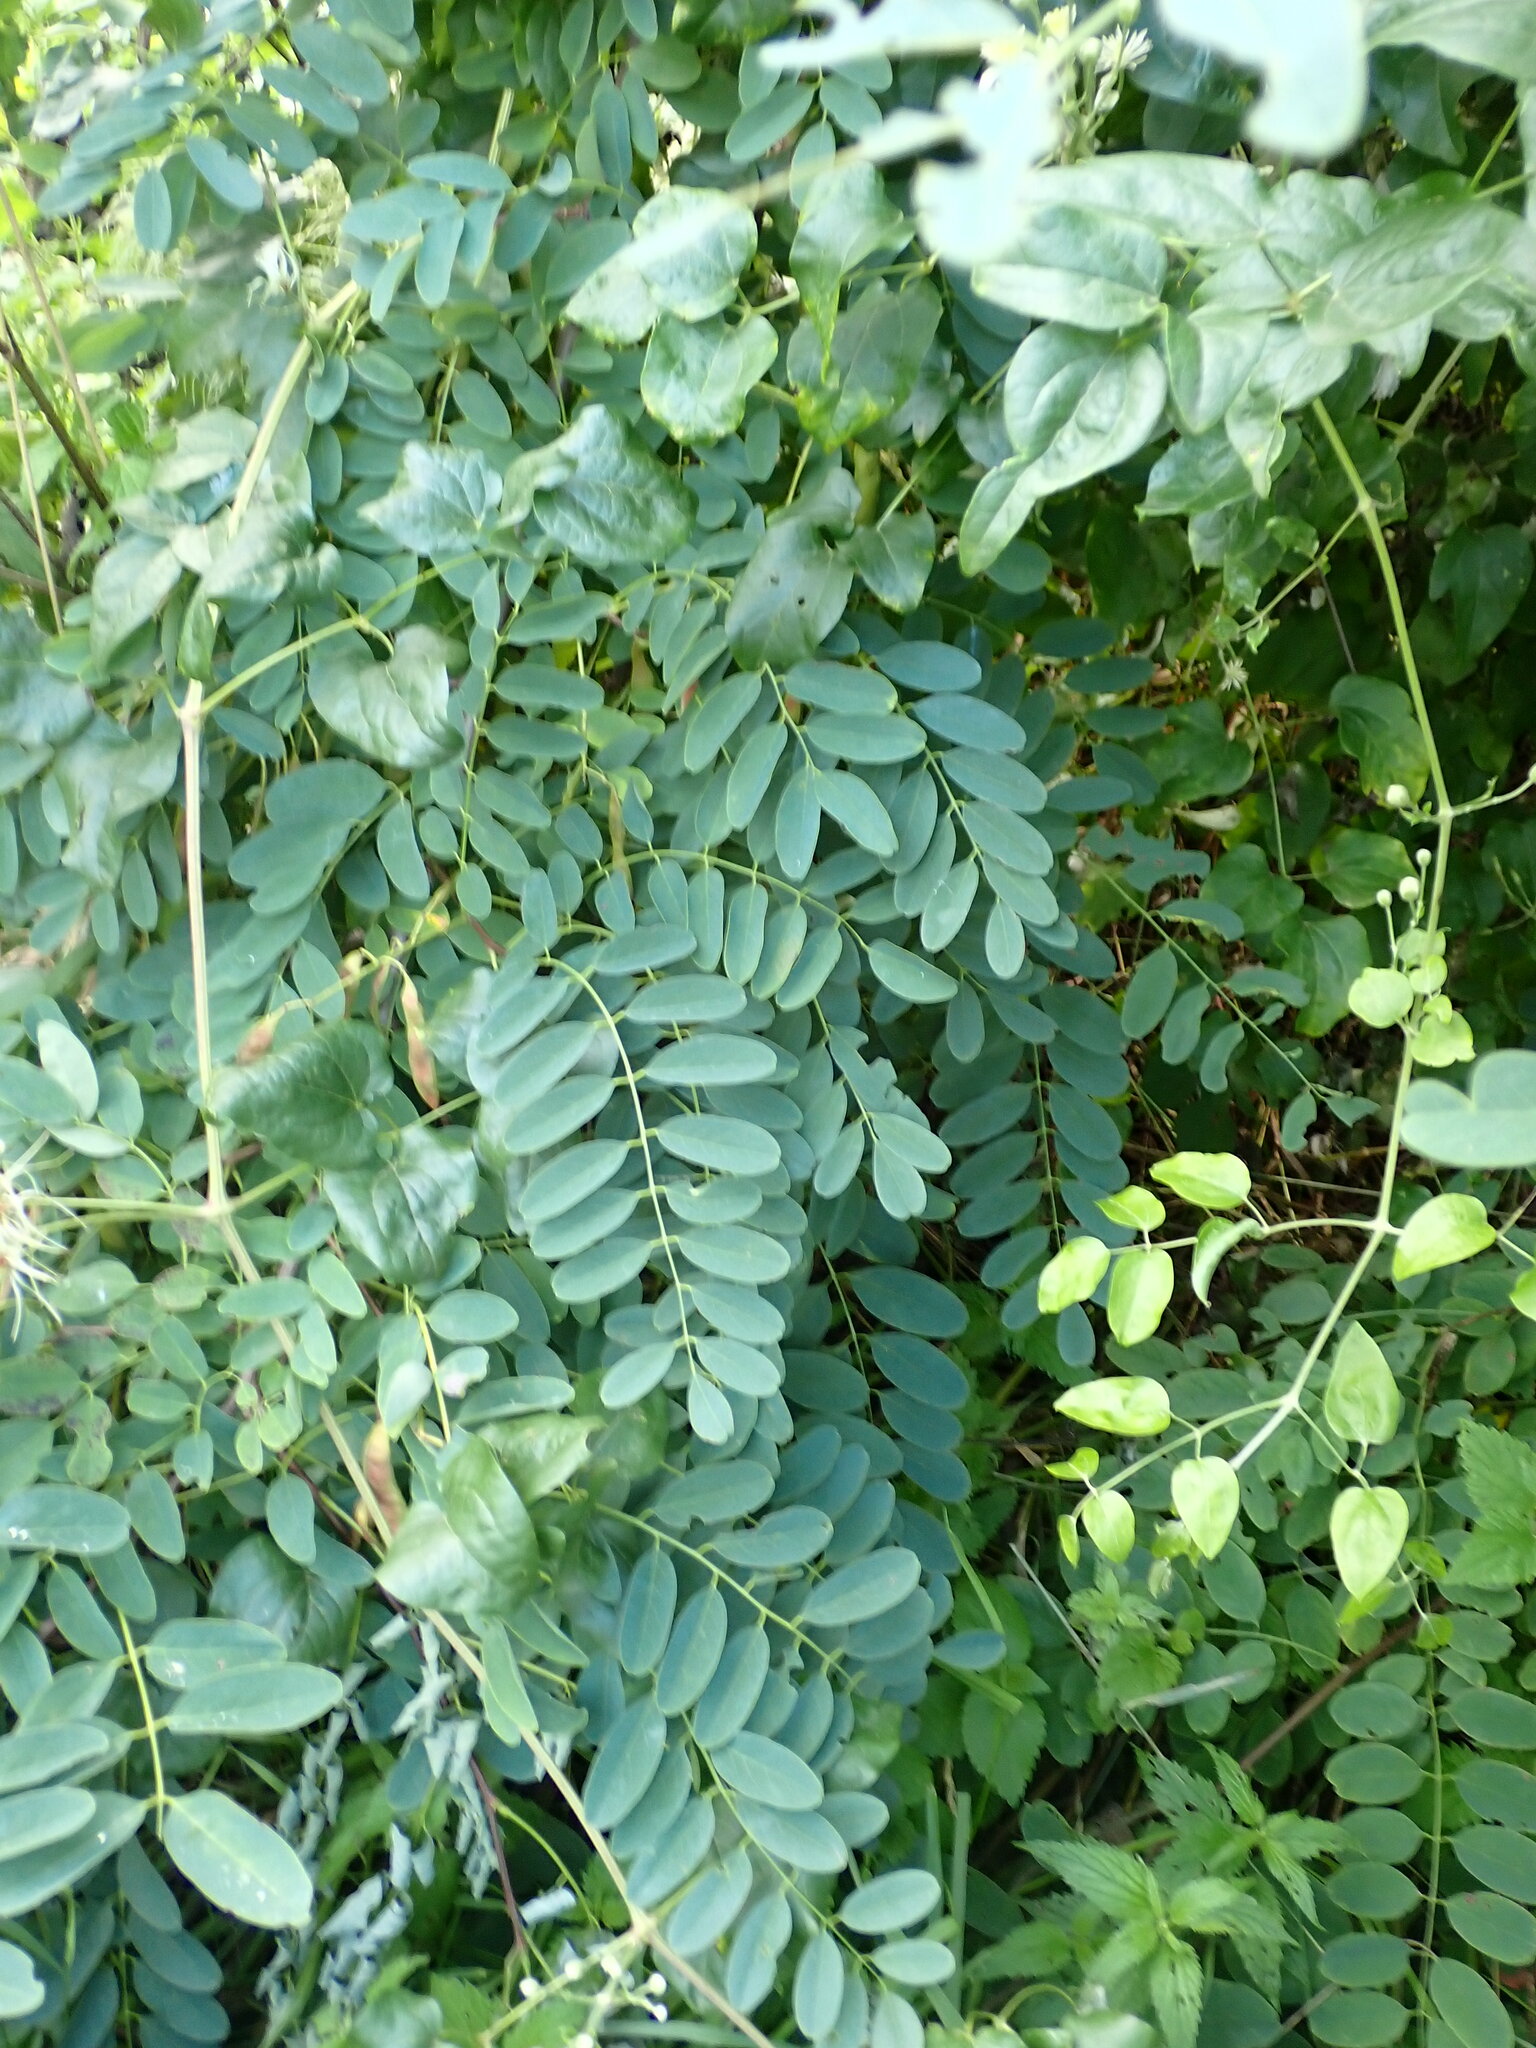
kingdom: Plantae
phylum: Tracheophyta
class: Magnoliopsida
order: Fabales
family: Fabaceae
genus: Robinia
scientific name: Robinia pseudoacacia
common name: Black locust
